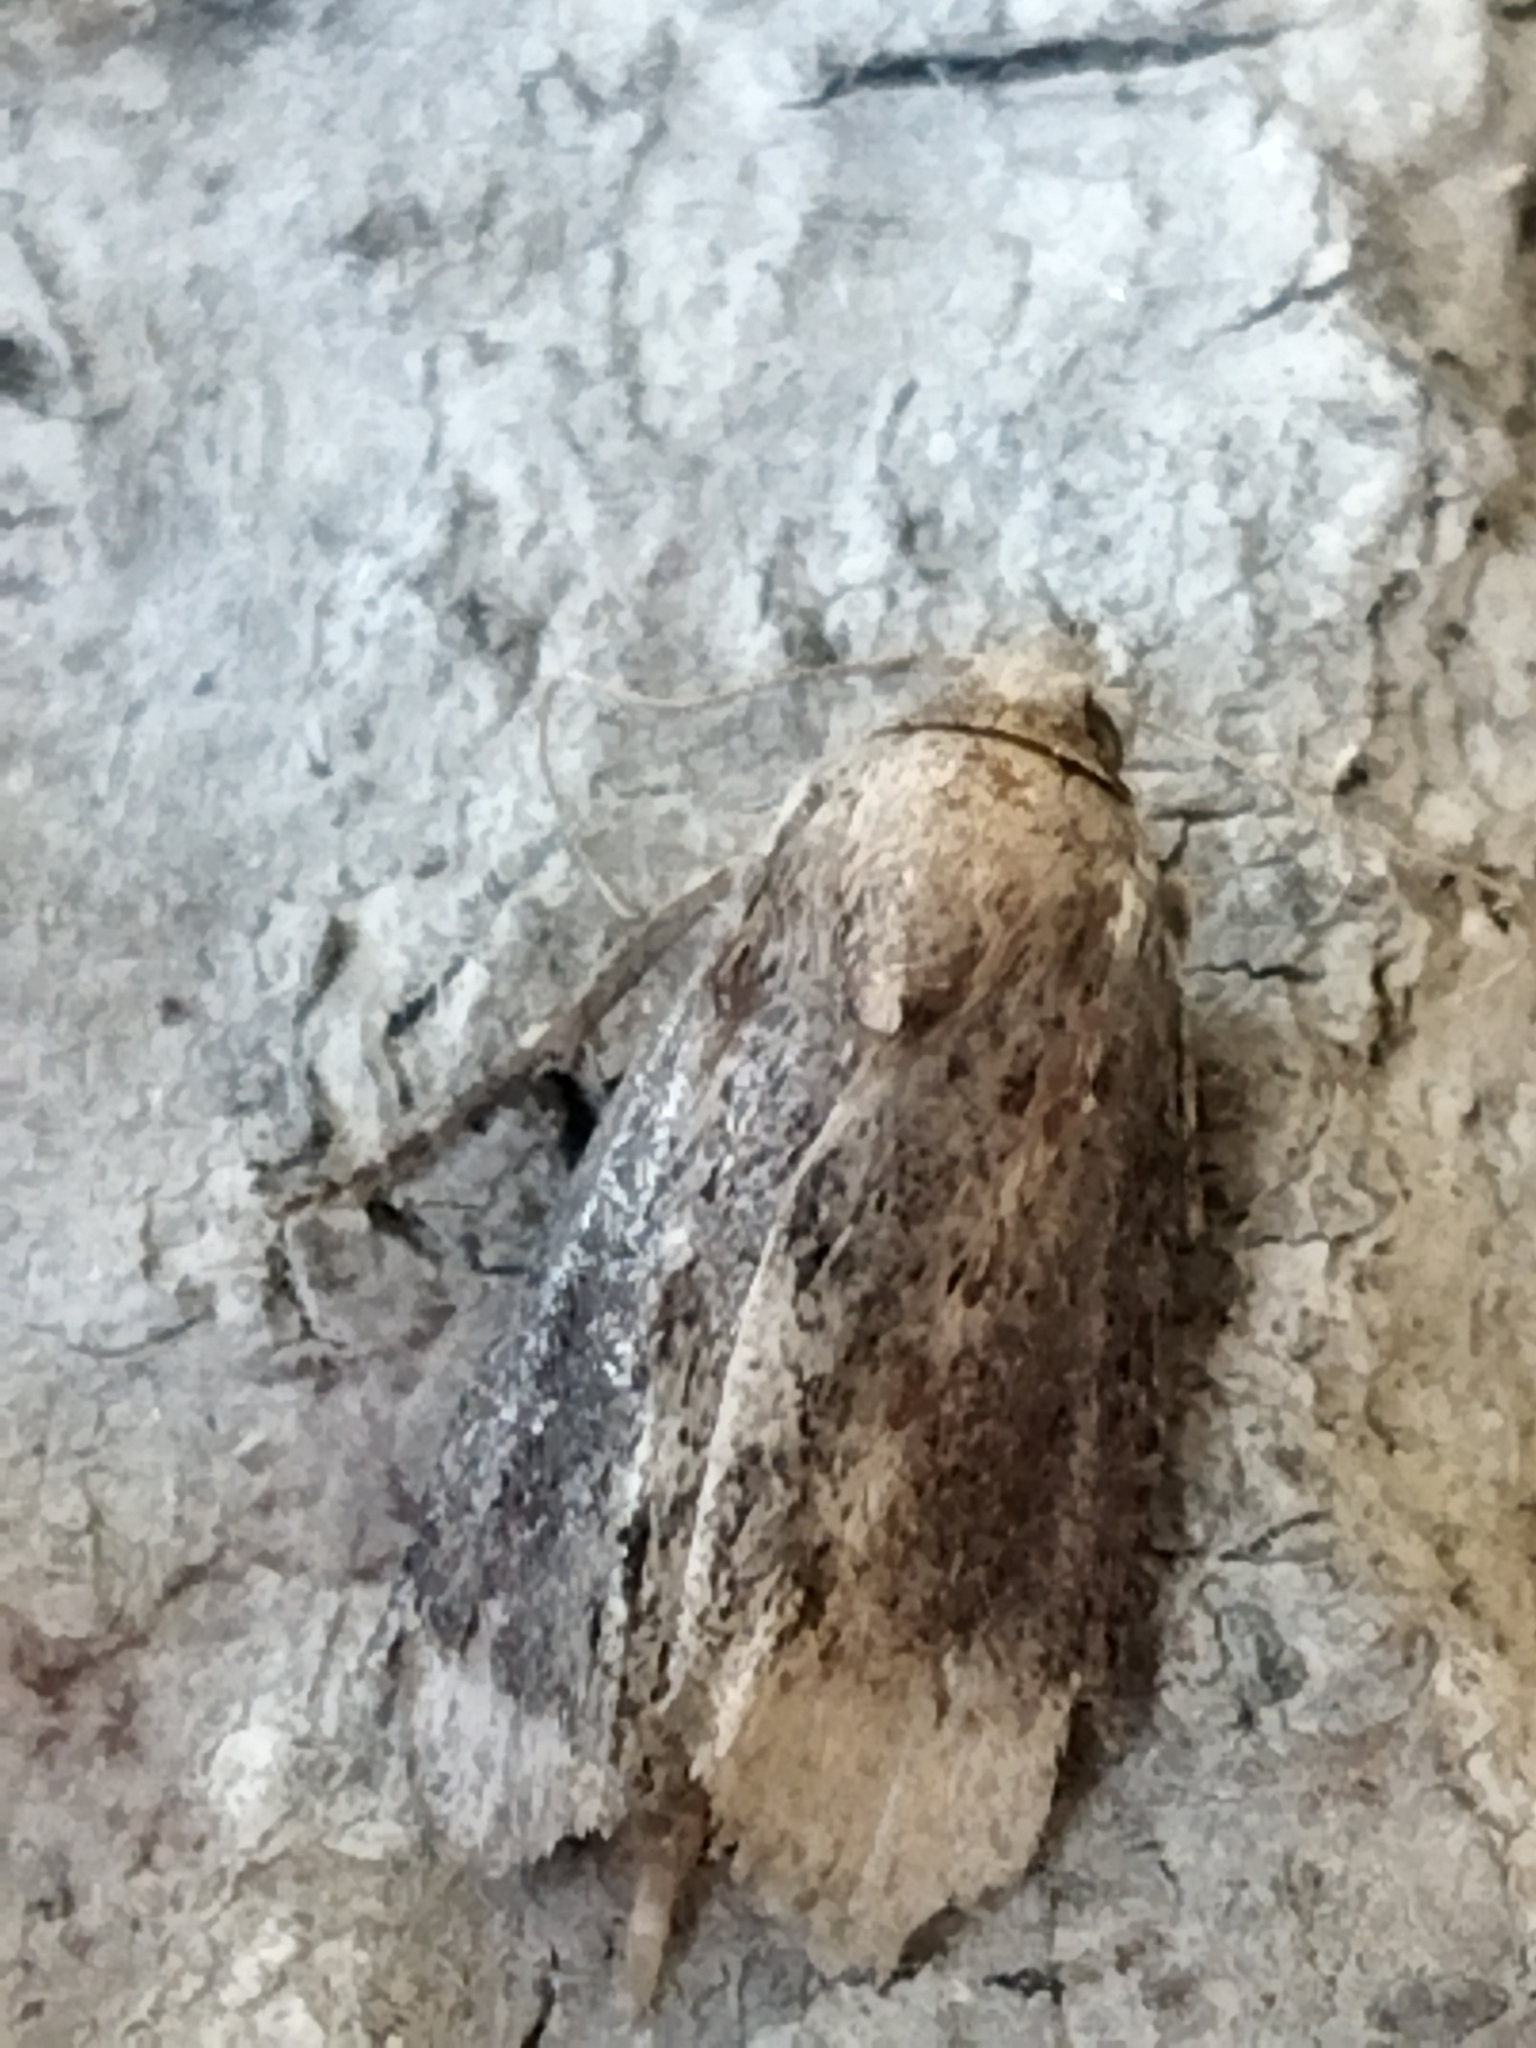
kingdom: Animalia
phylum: Arthropoda
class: Insecta
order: Lepidoptera
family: Noctuidae
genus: Amphipyra
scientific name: Amphipyra tragopoginis
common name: Mouse moth
